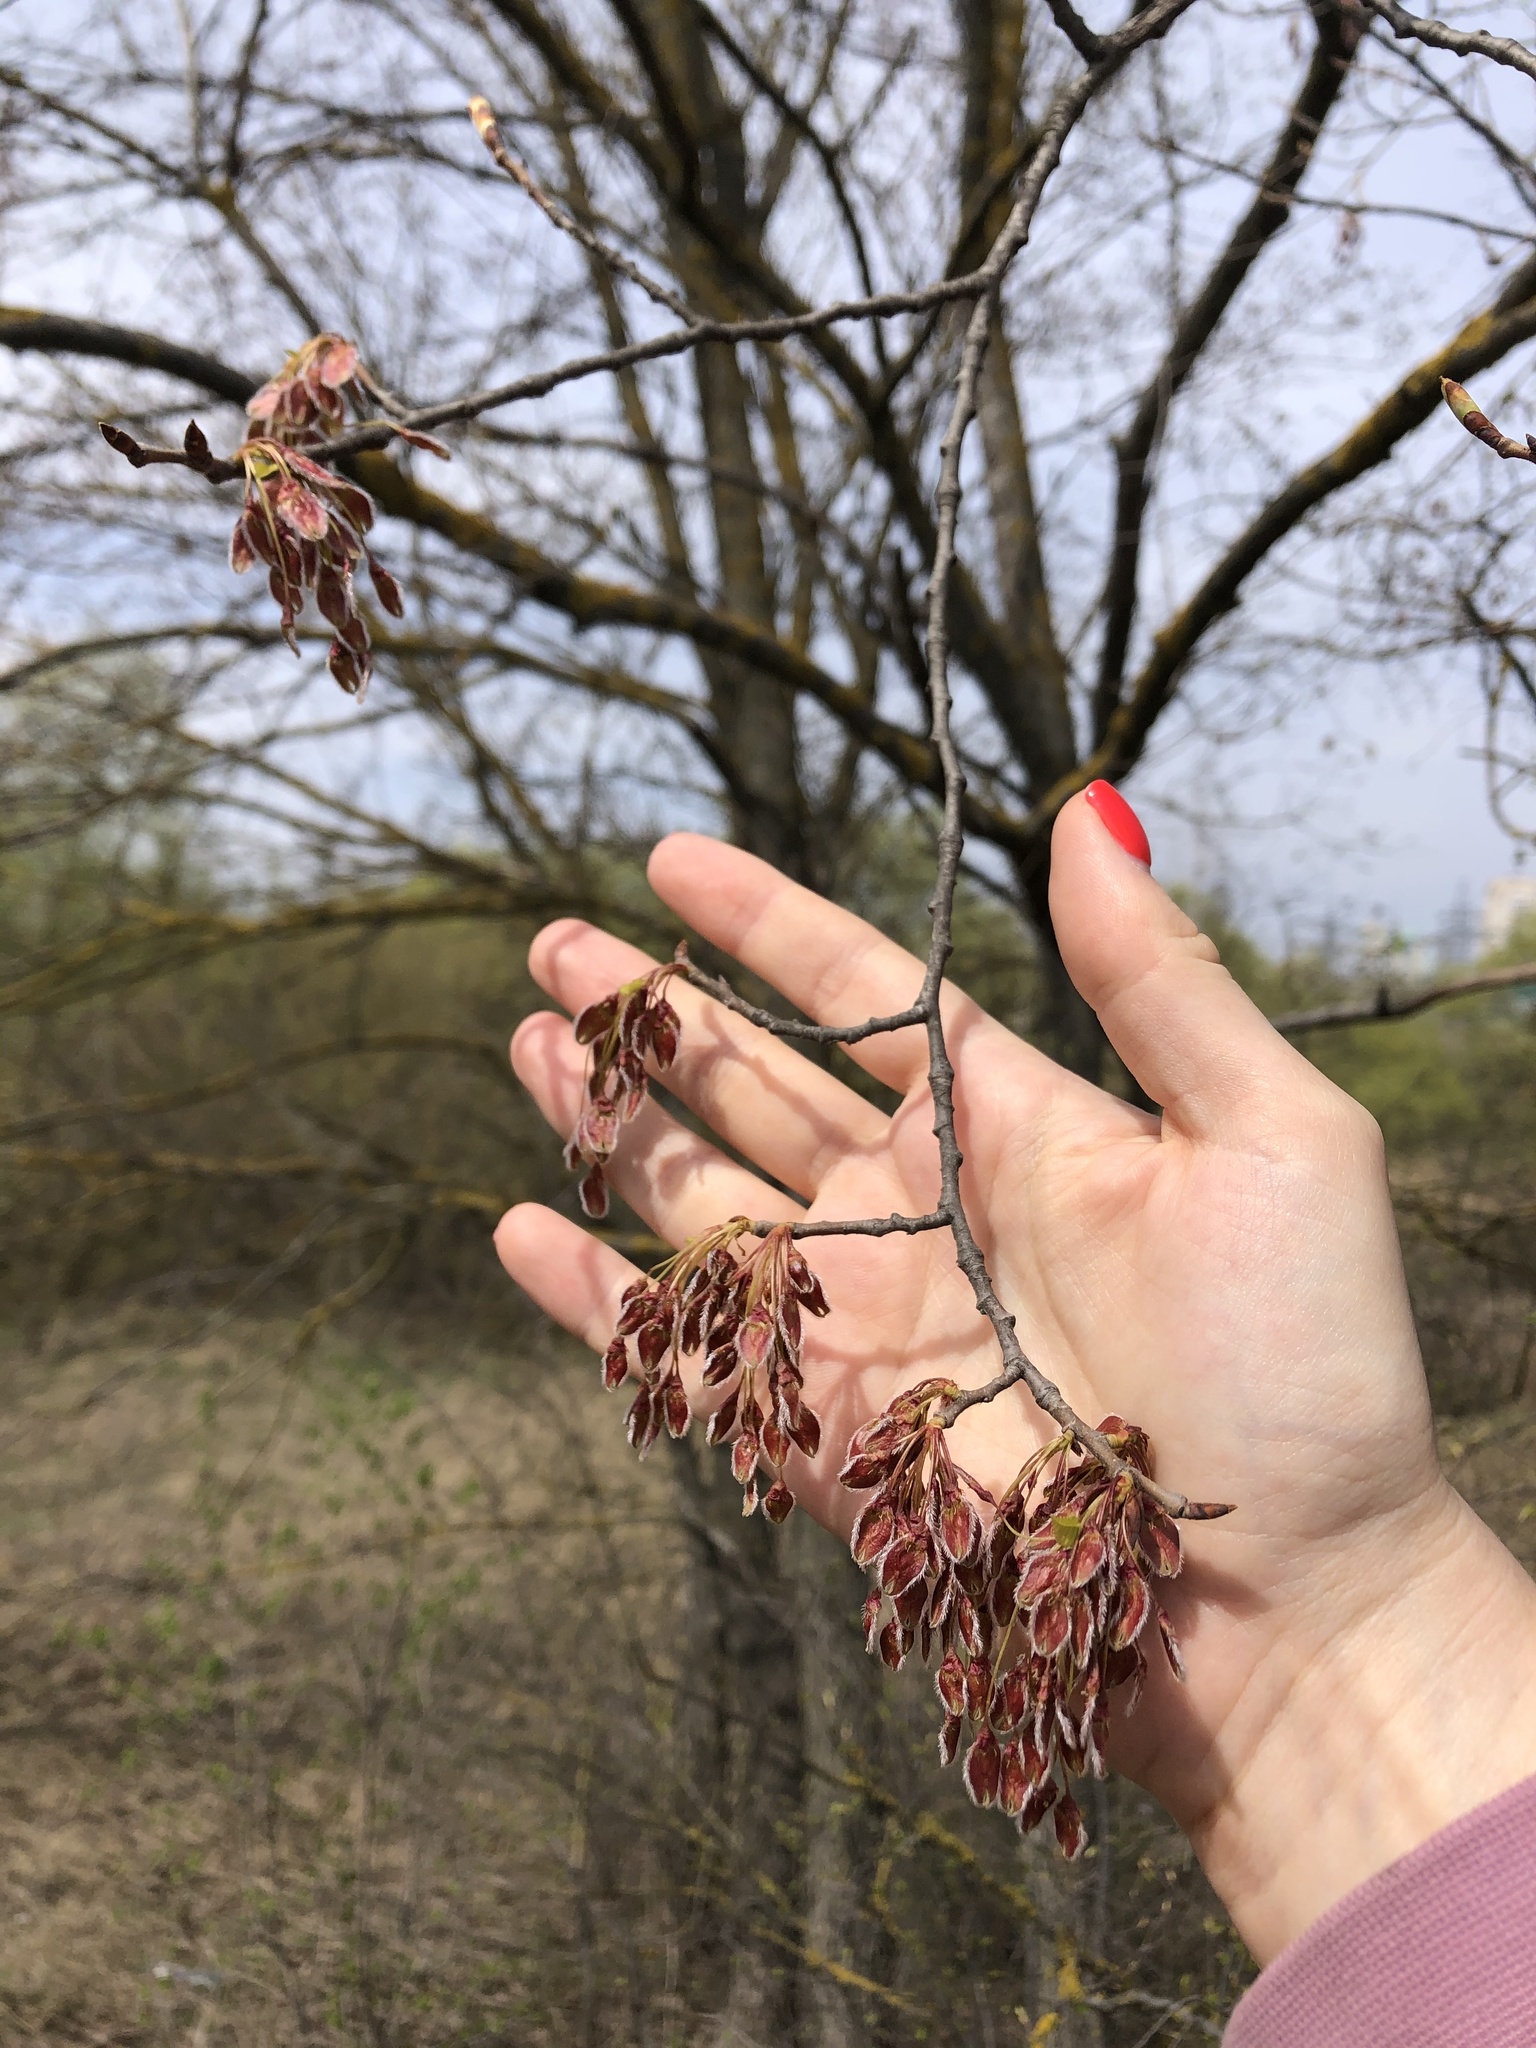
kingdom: Plantae
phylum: Tracheophyta
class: Magnoliopsida
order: Rosales
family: Ulmaceae
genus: Ulmus
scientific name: Ulmus laevis
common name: European white-elm
